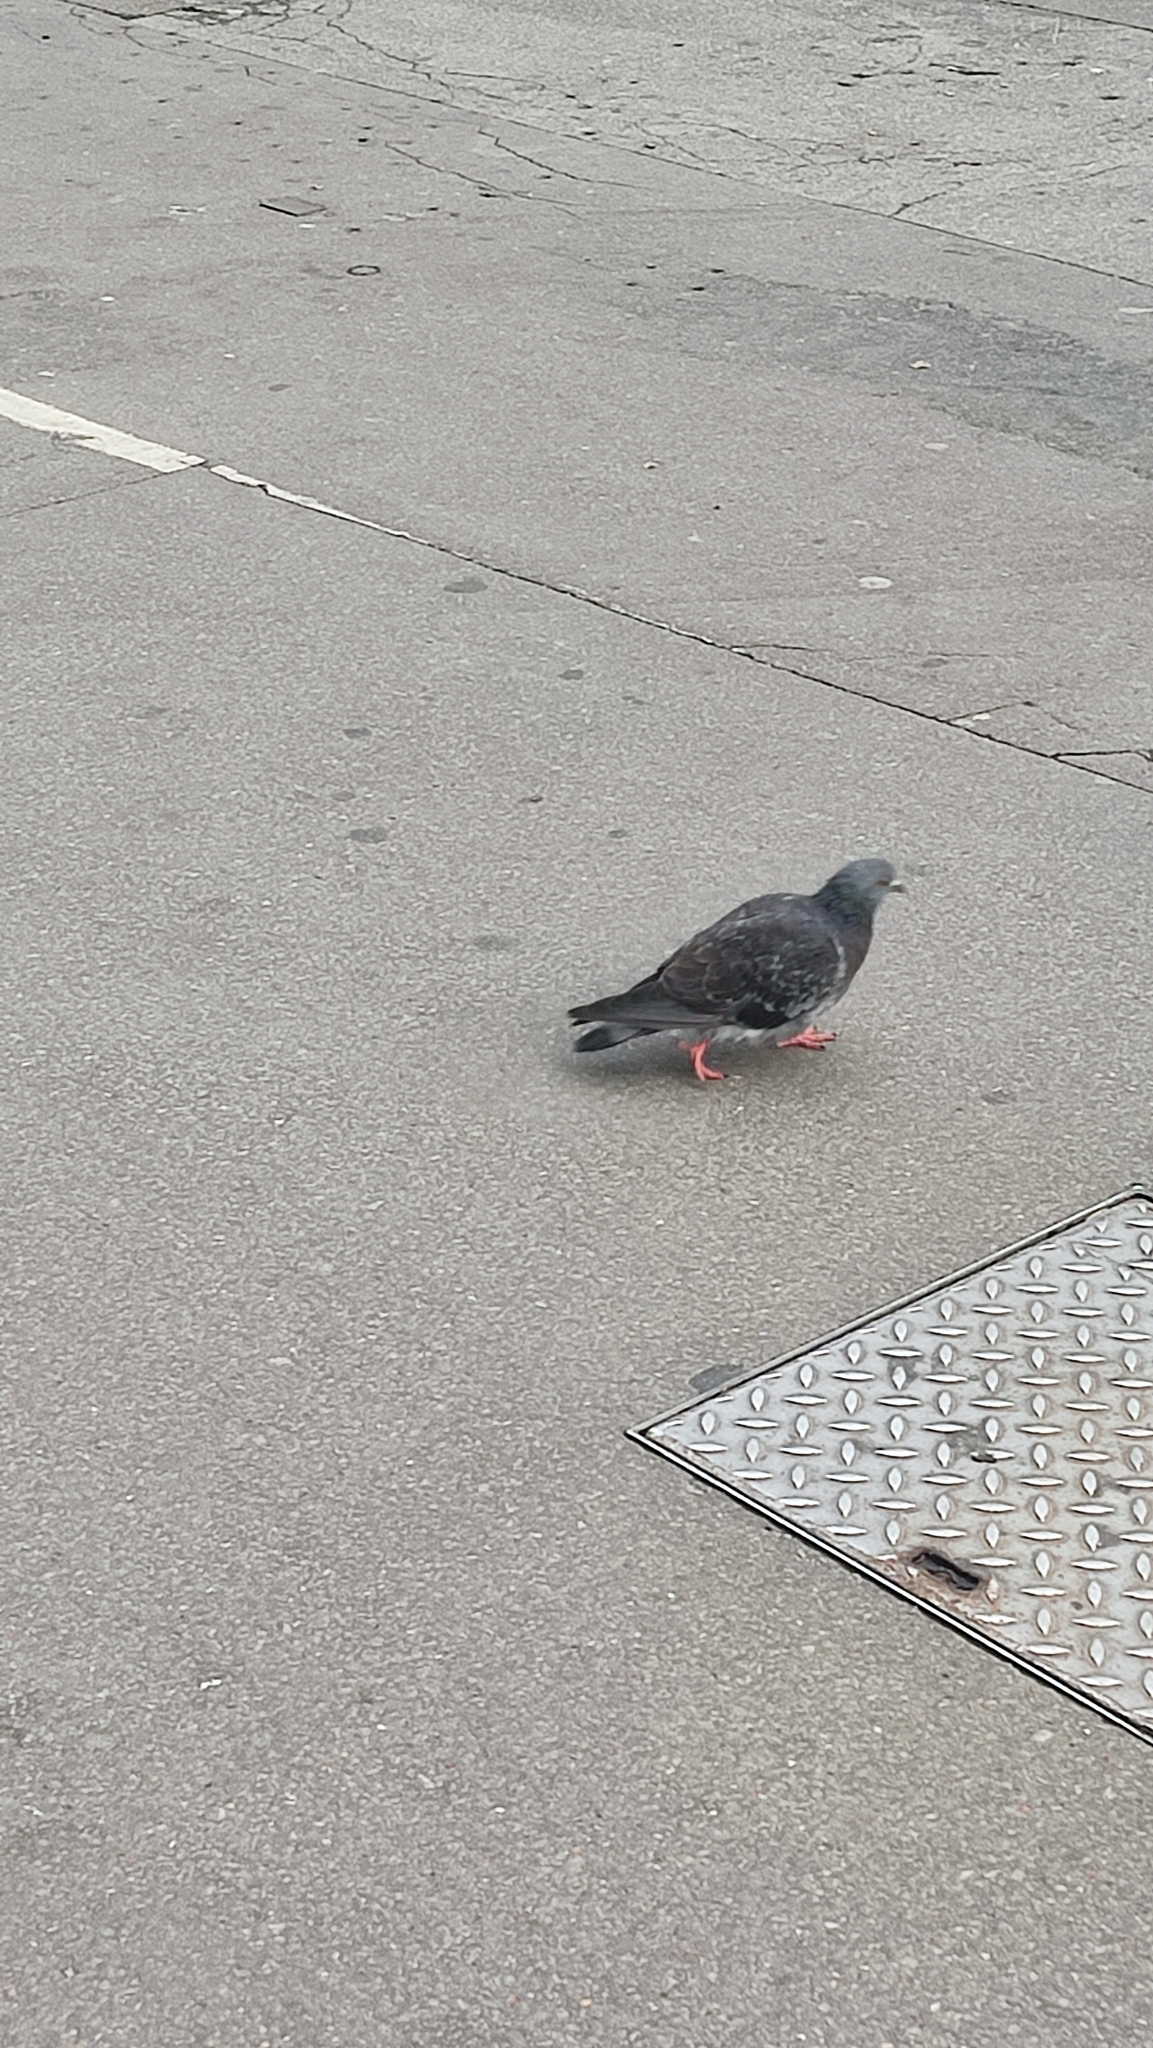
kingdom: Animalia
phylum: Chordata
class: Aves
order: Columbiformes
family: Columbidae
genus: Columba
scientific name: Columba livia
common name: Rock pigeon
